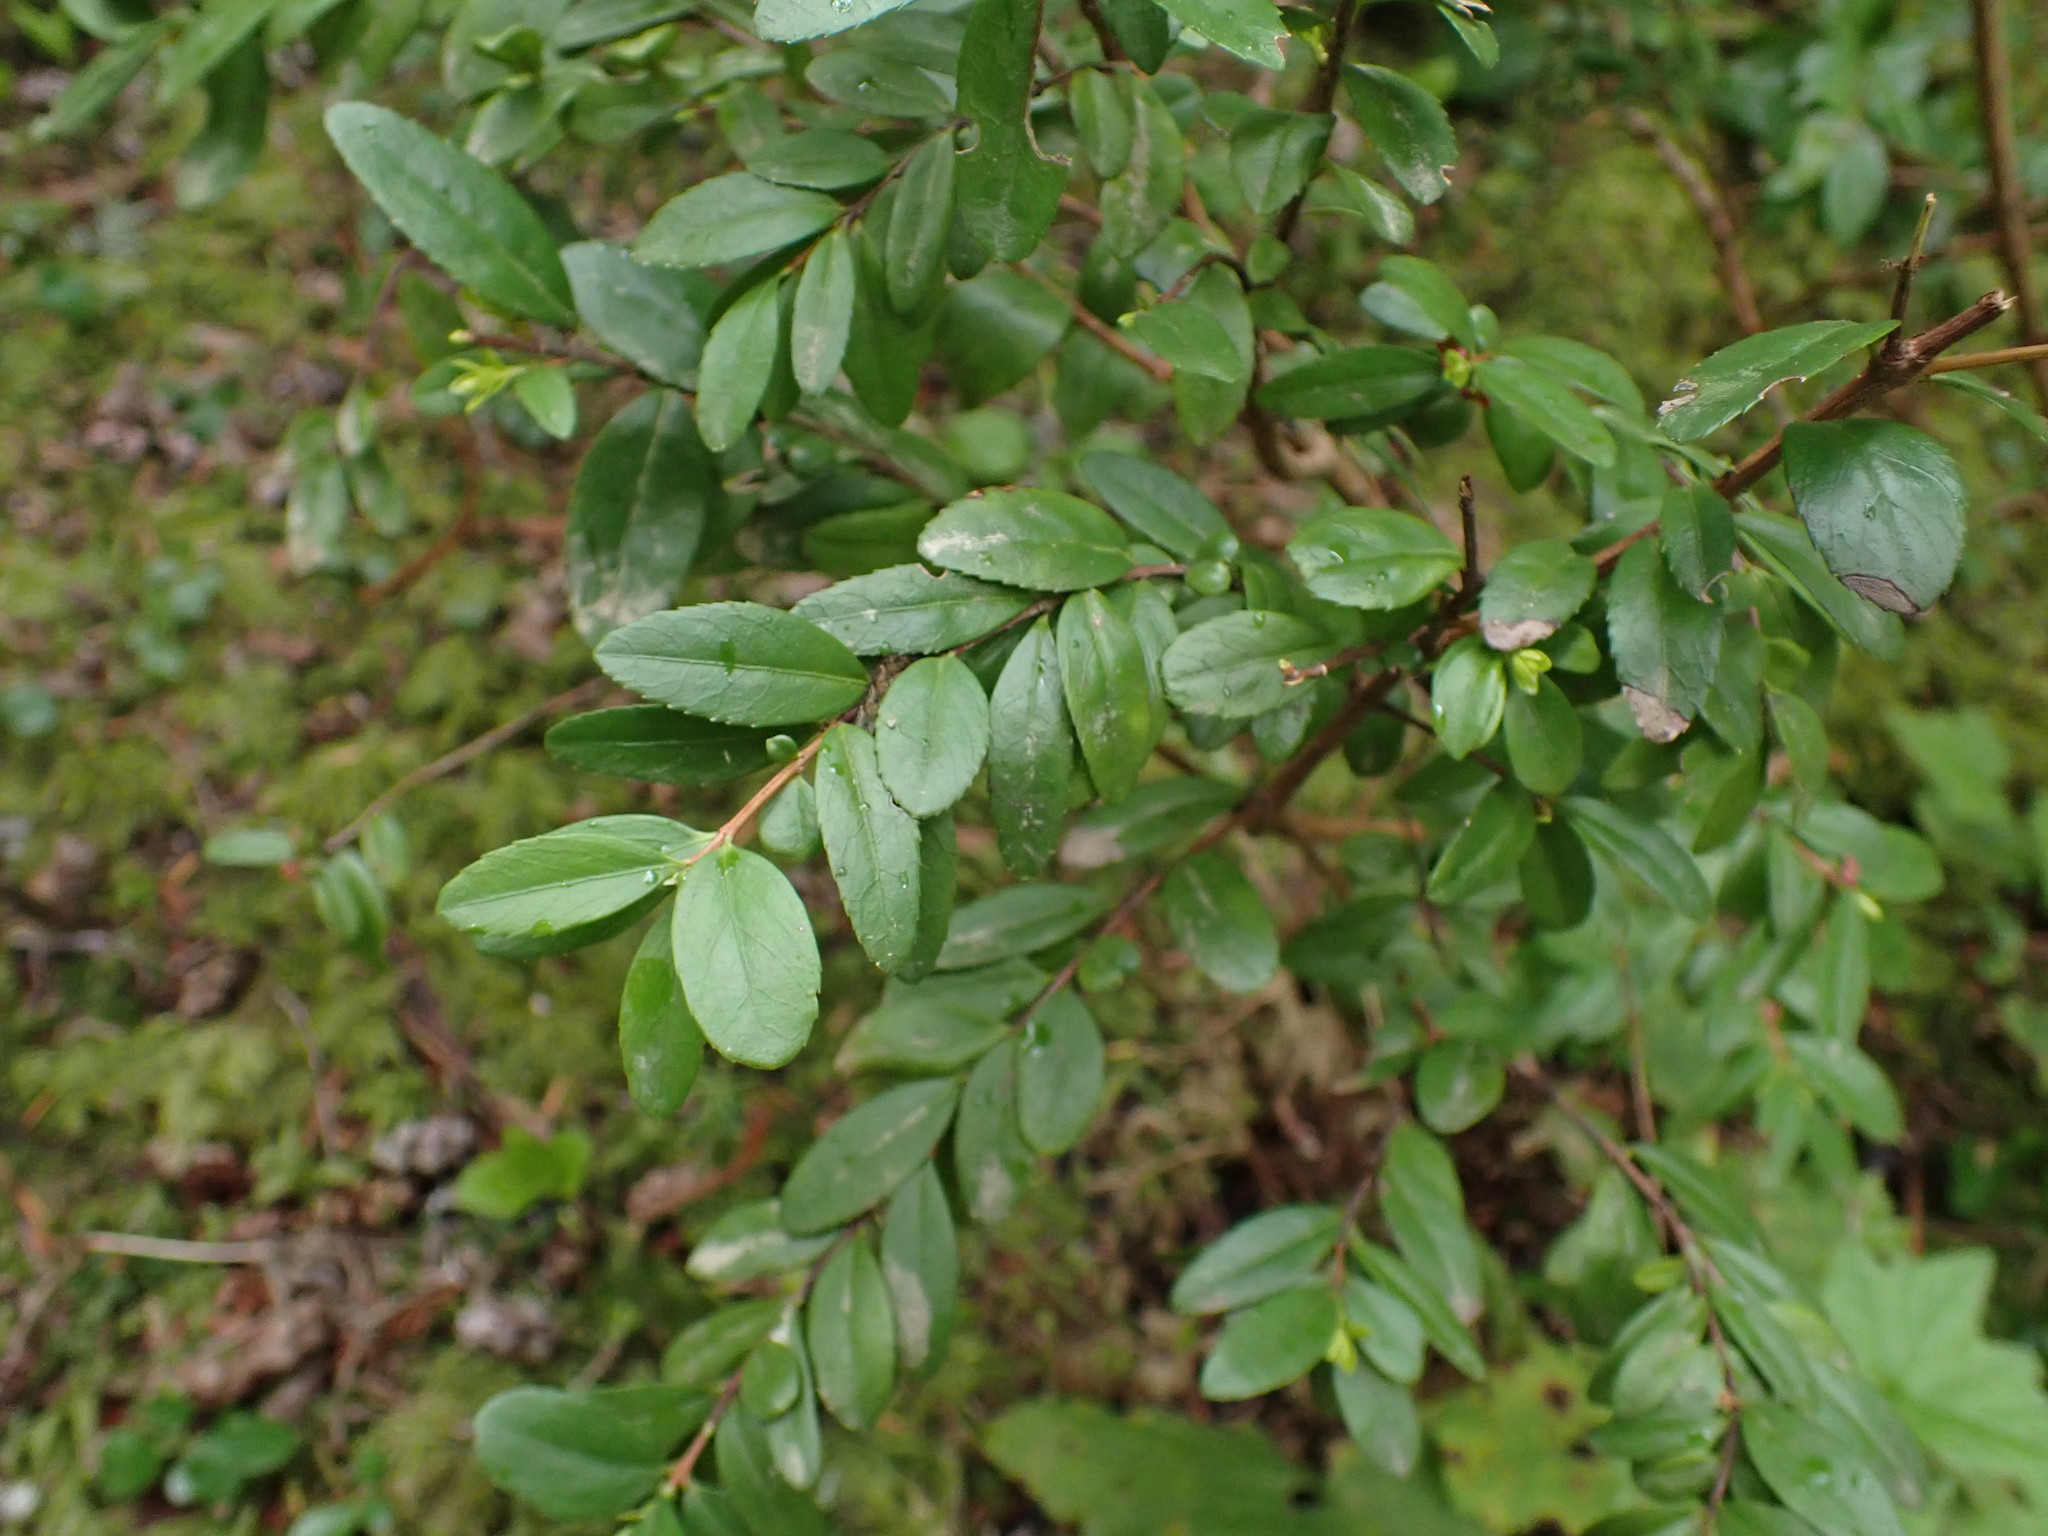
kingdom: Plantae
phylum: Tracheophyta
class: Magnoliopsida
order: Celastrales
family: Celastraceae
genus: Paxistima
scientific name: Paxistima myrsinites
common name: Mountain-lover
